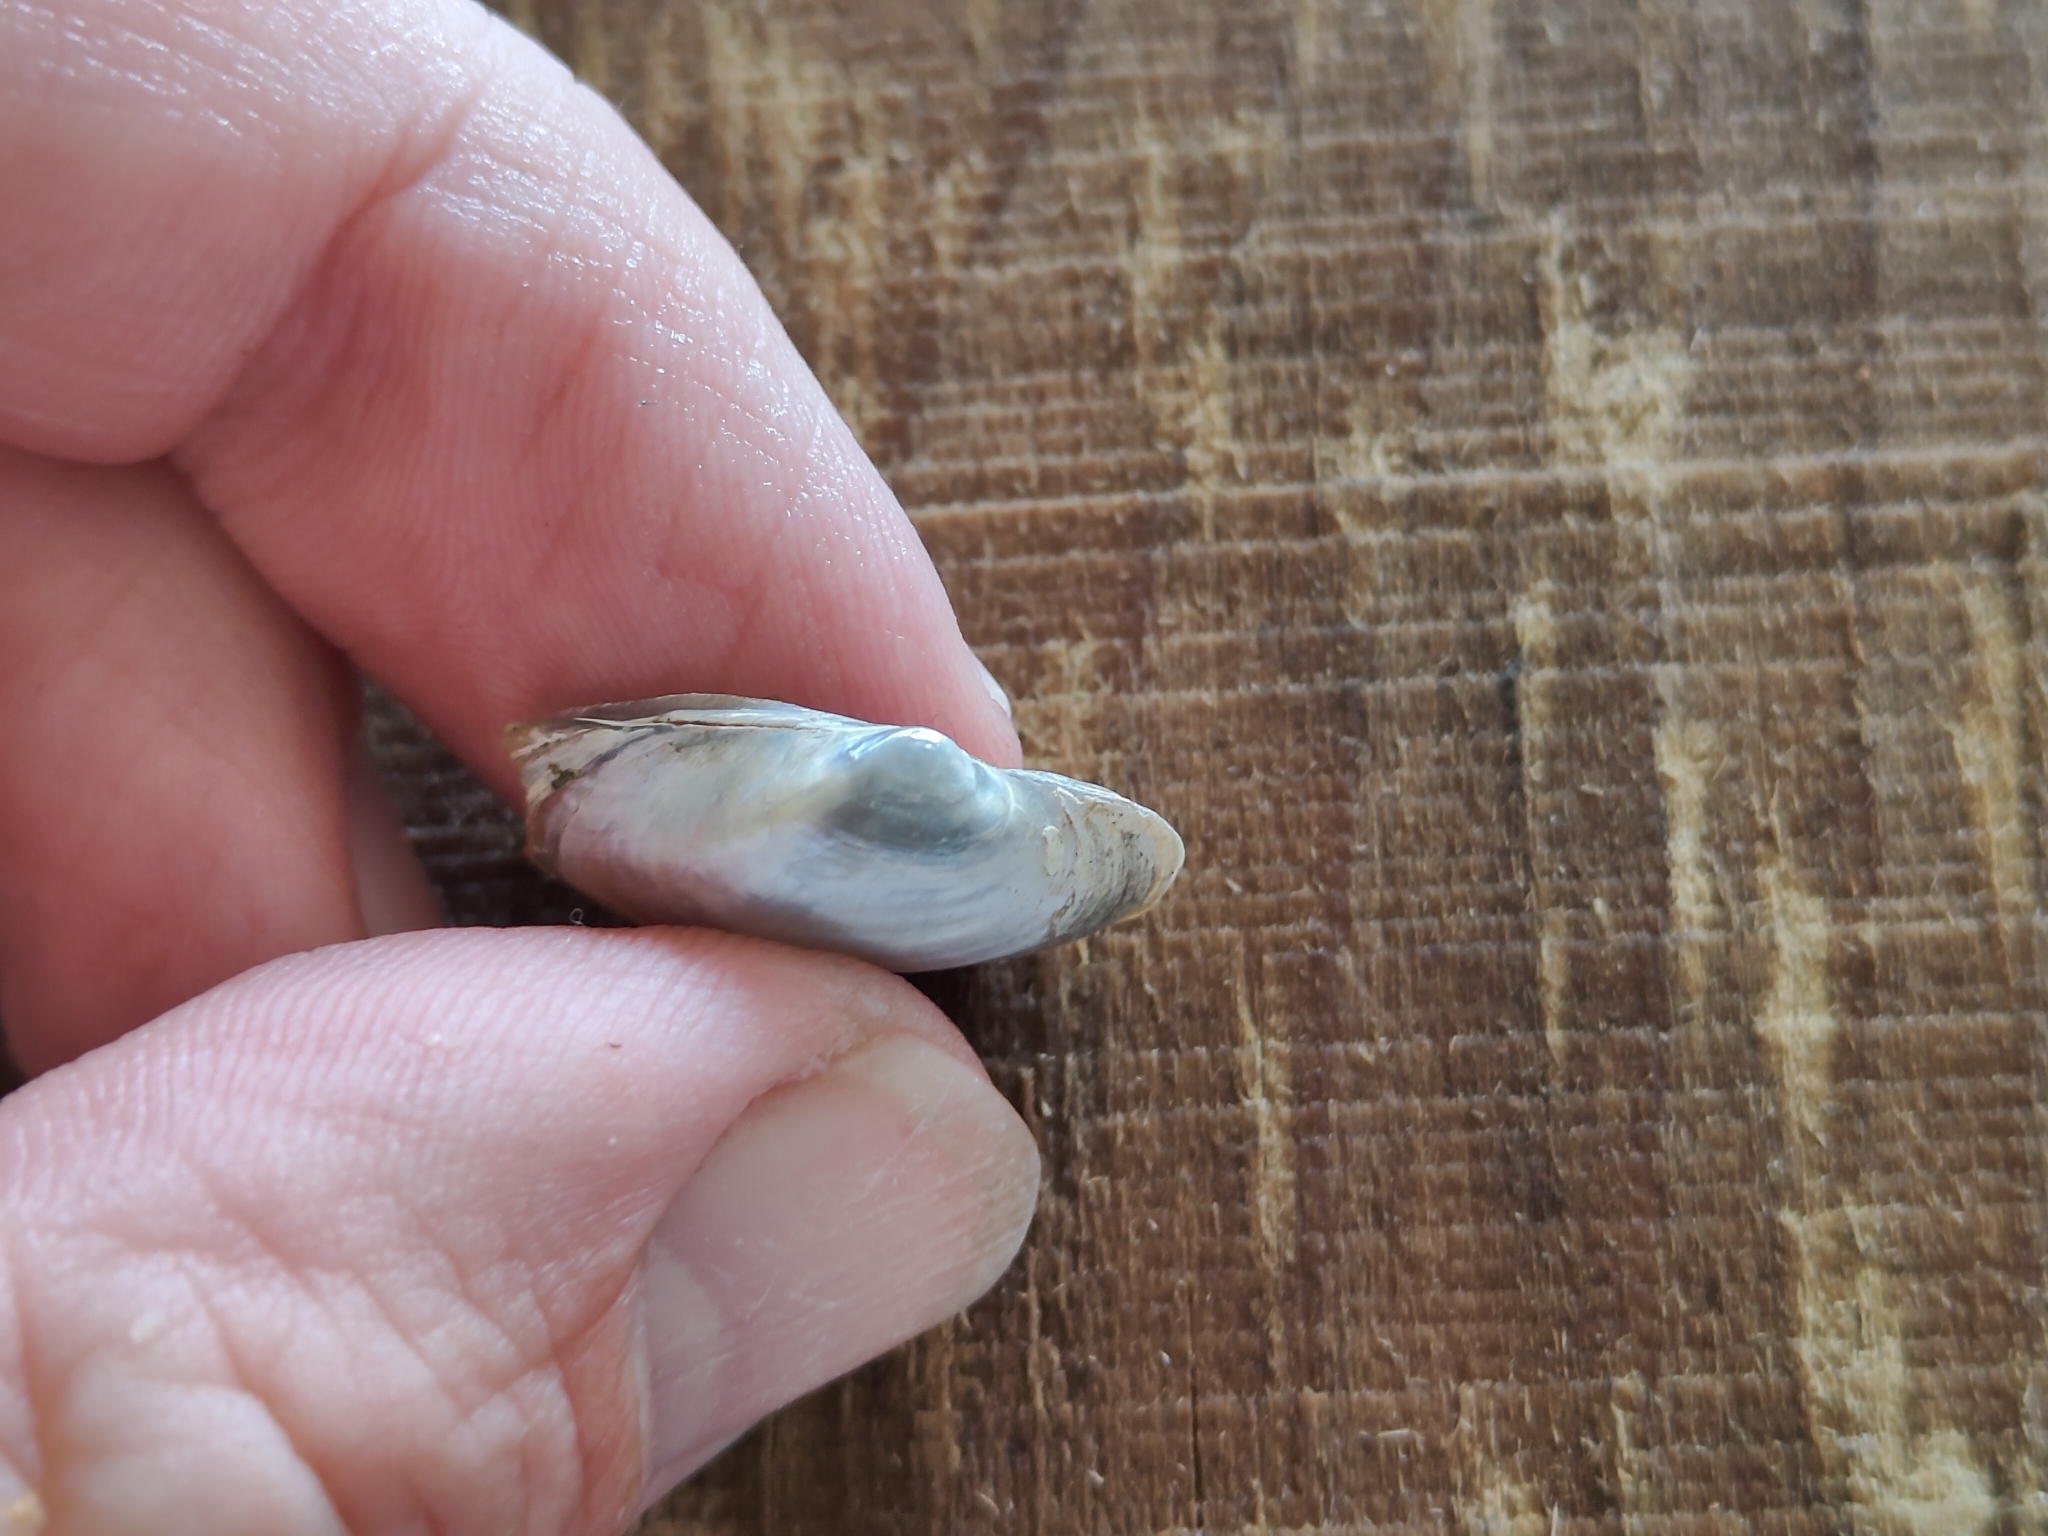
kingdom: Animalia
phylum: Mollusca
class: Bivalvia
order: Unionida
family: Unionidae
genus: Truncilla
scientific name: Truncilla donaciformis
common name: Fawnsfoot
